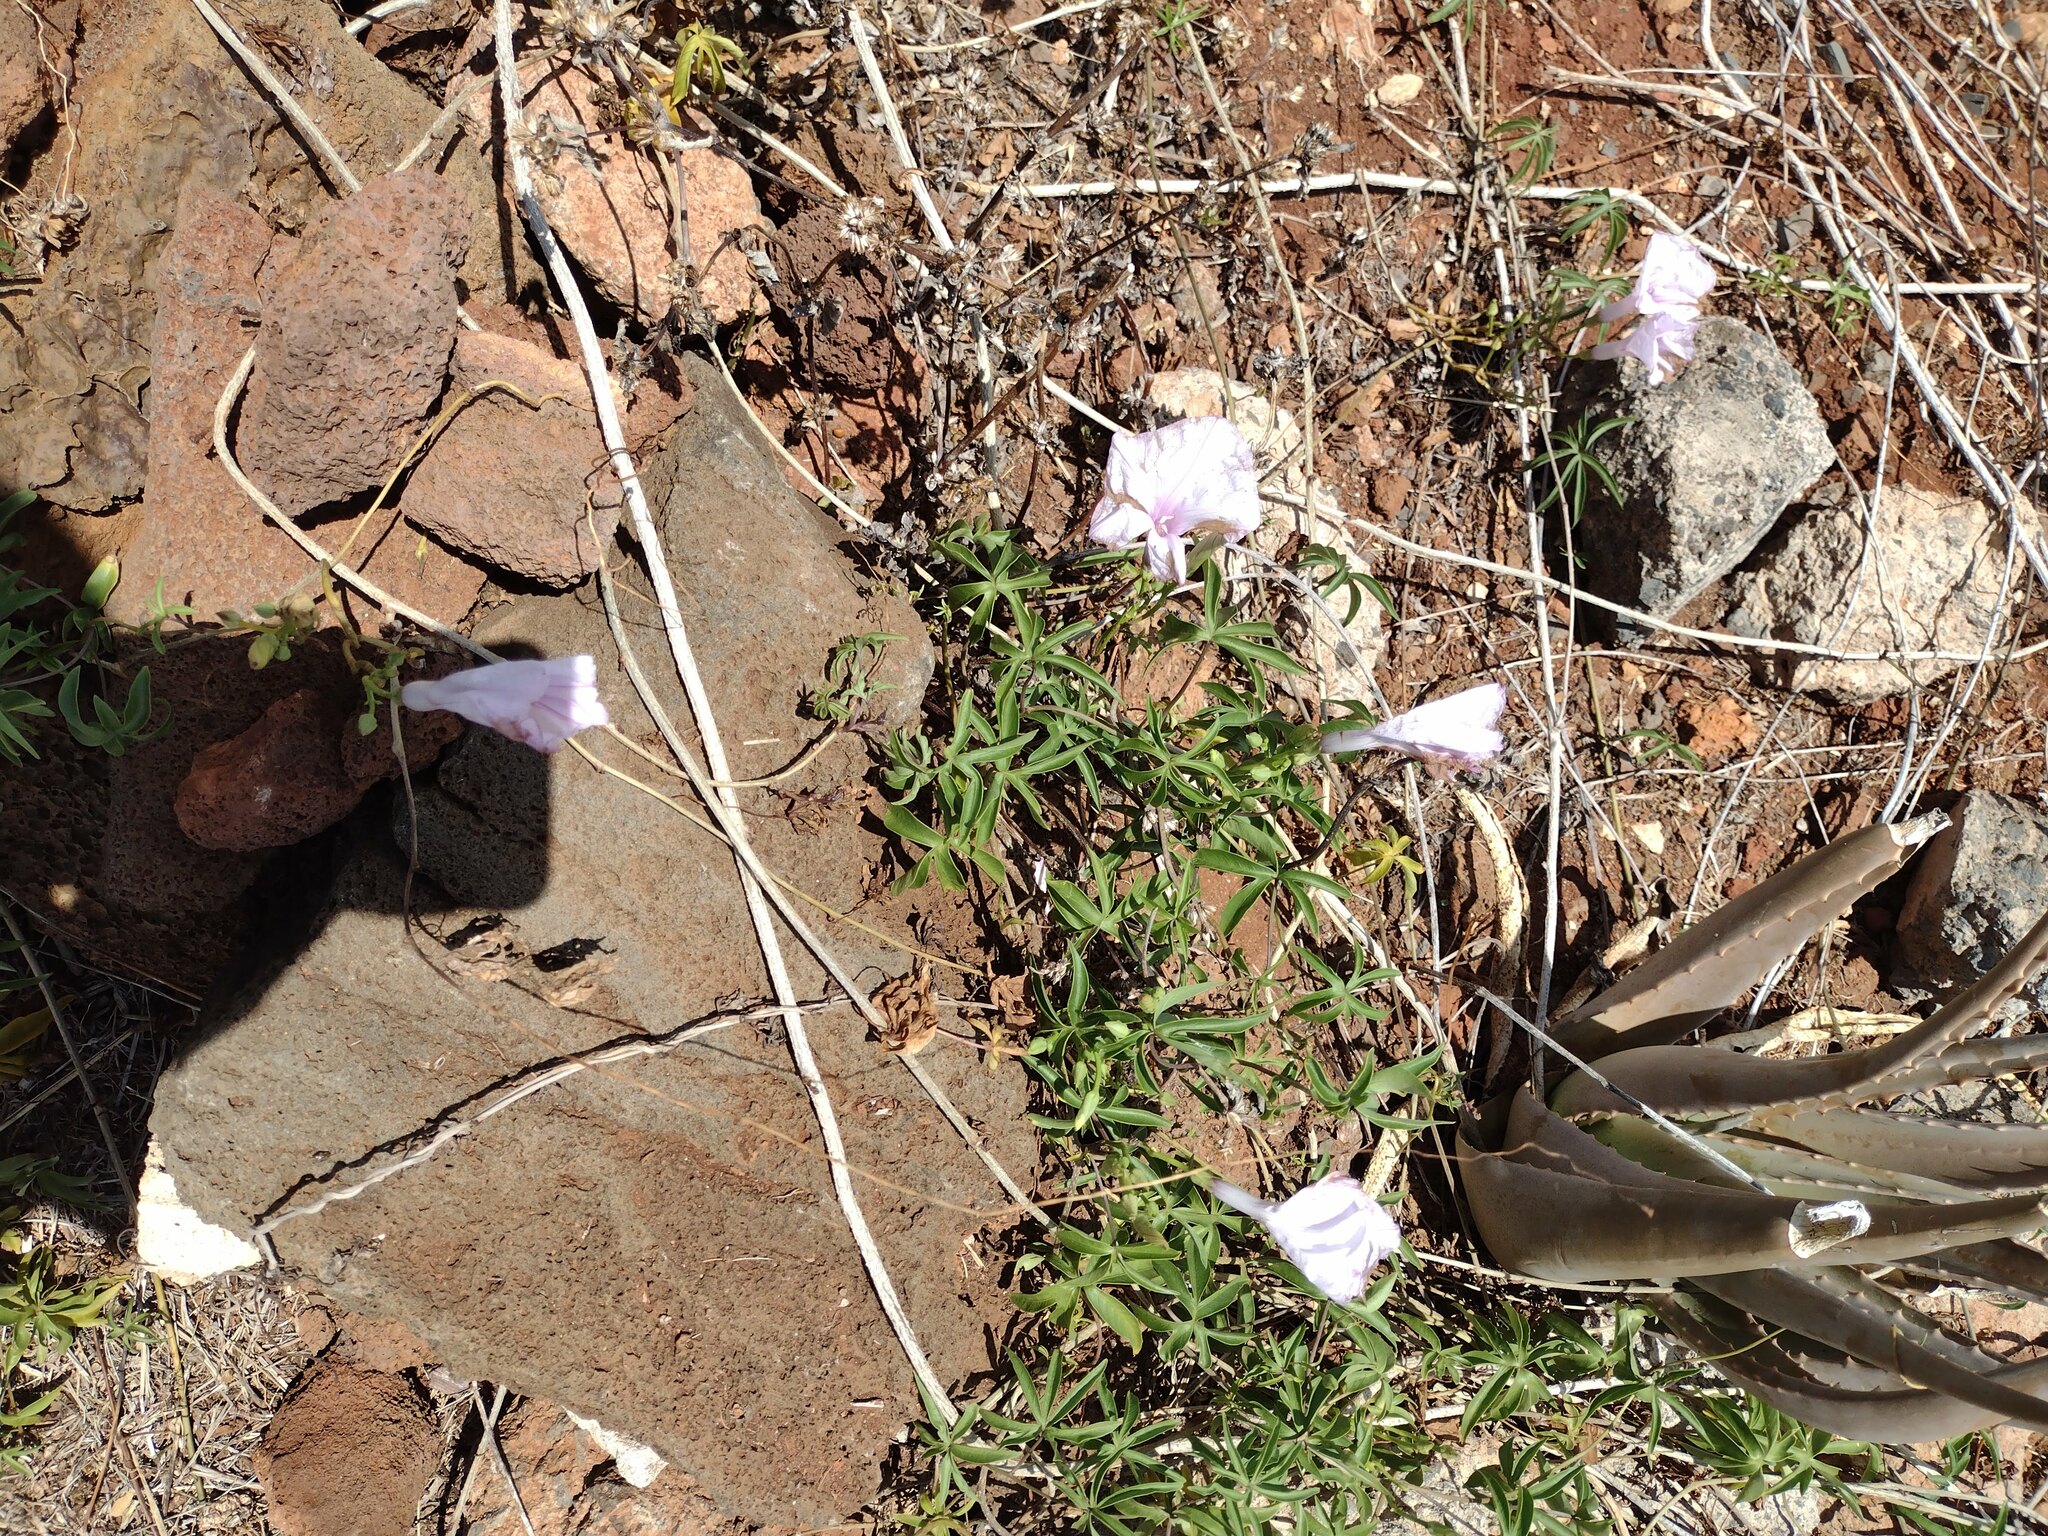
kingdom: Plantae
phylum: Tracheophyta
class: Magnoliopsida
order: Solanales
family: Convolvulaceae
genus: Ipomoea
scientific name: Ipomoea cairica
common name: Mile a minute vine
